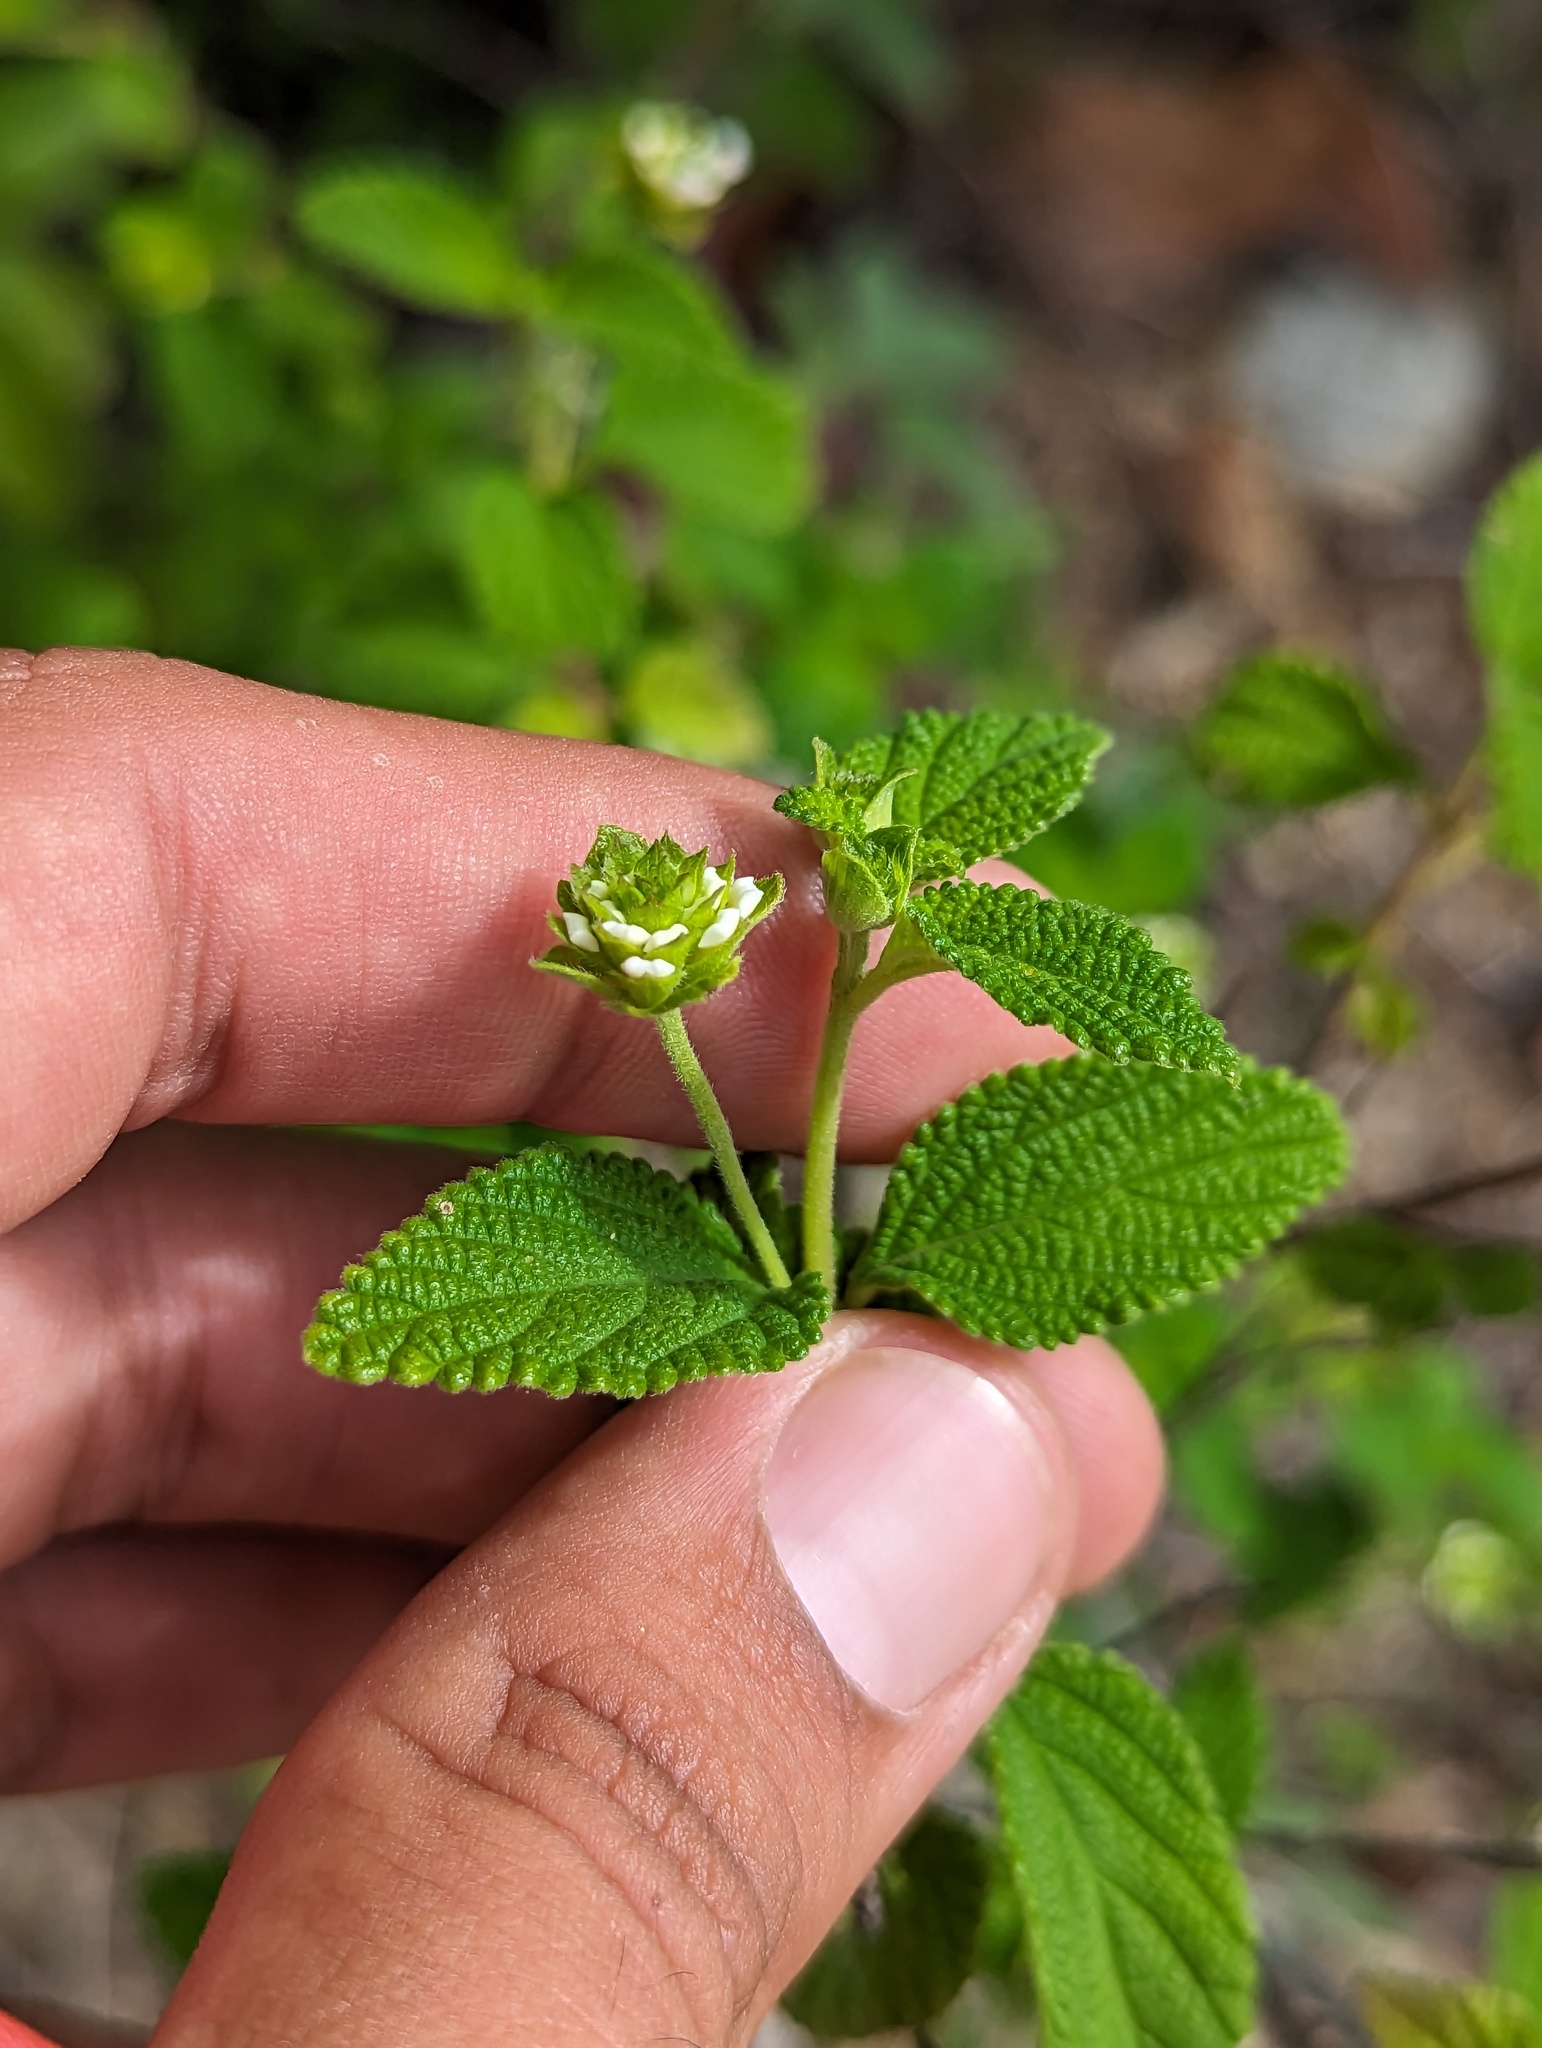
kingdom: Plantae
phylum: Tracheophyta
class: Magnoliopsida
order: Lamiales
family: Verbenaceae
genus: Lantana
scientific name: Lantana velutina
